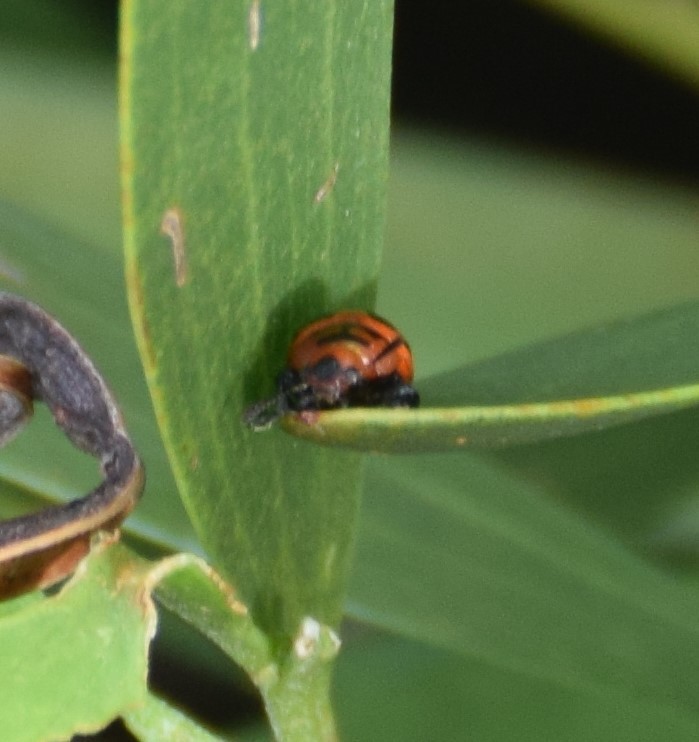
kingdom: Animalia
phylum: Arthropoda
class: Insecta
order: Coleoptera
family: Chrysomelidae
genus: Calomela
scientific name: Calomela
